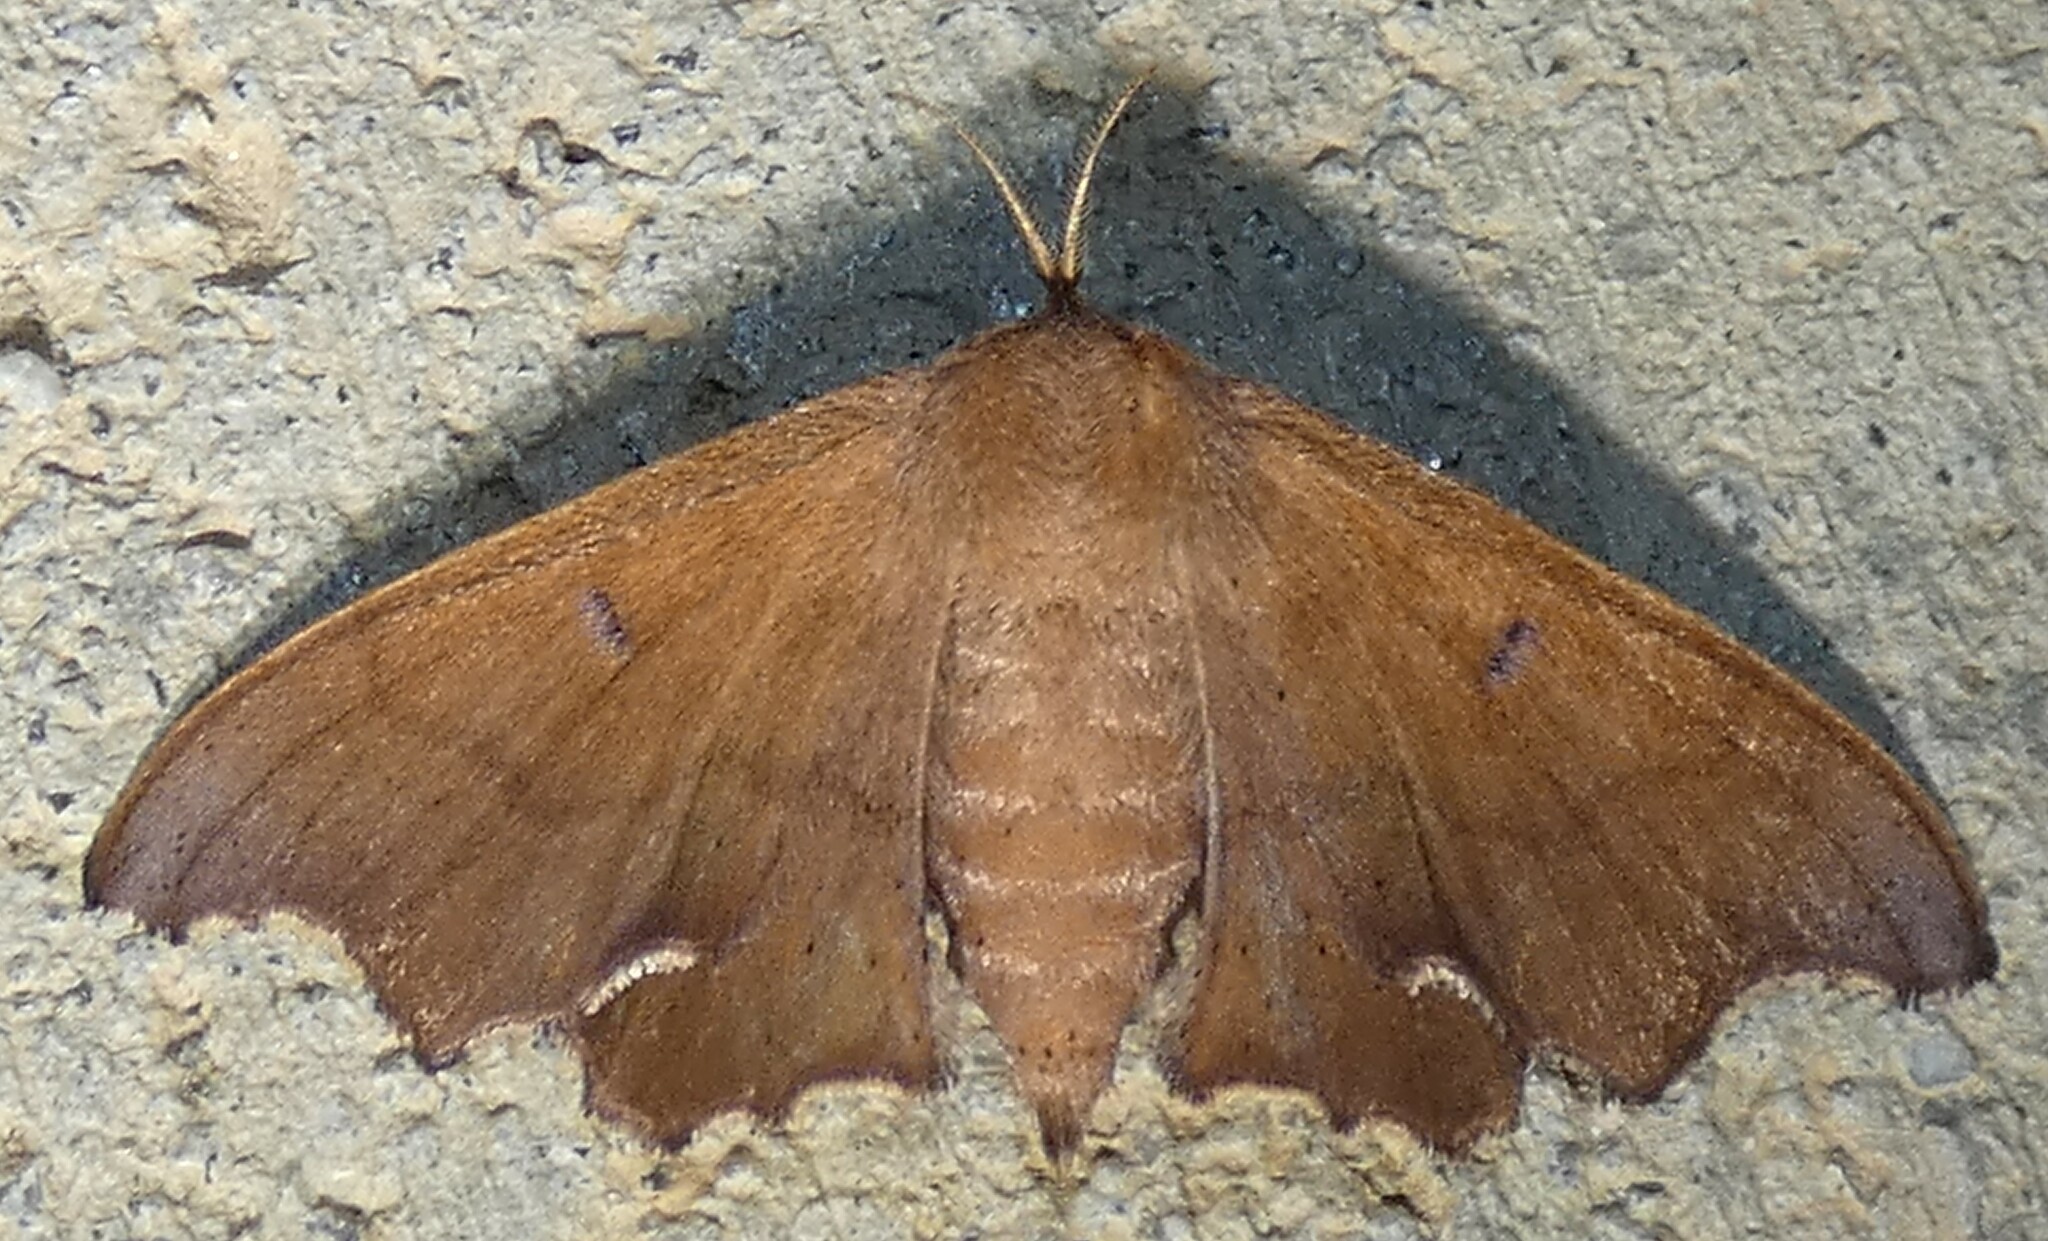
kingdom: Animalia
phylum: Arthropoda
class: Insecta
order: Lepidoptera
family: Mimallonidae
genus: Lacosoma
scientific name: Lacosoma chiridota
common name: Scalloped sack-bearer moth
